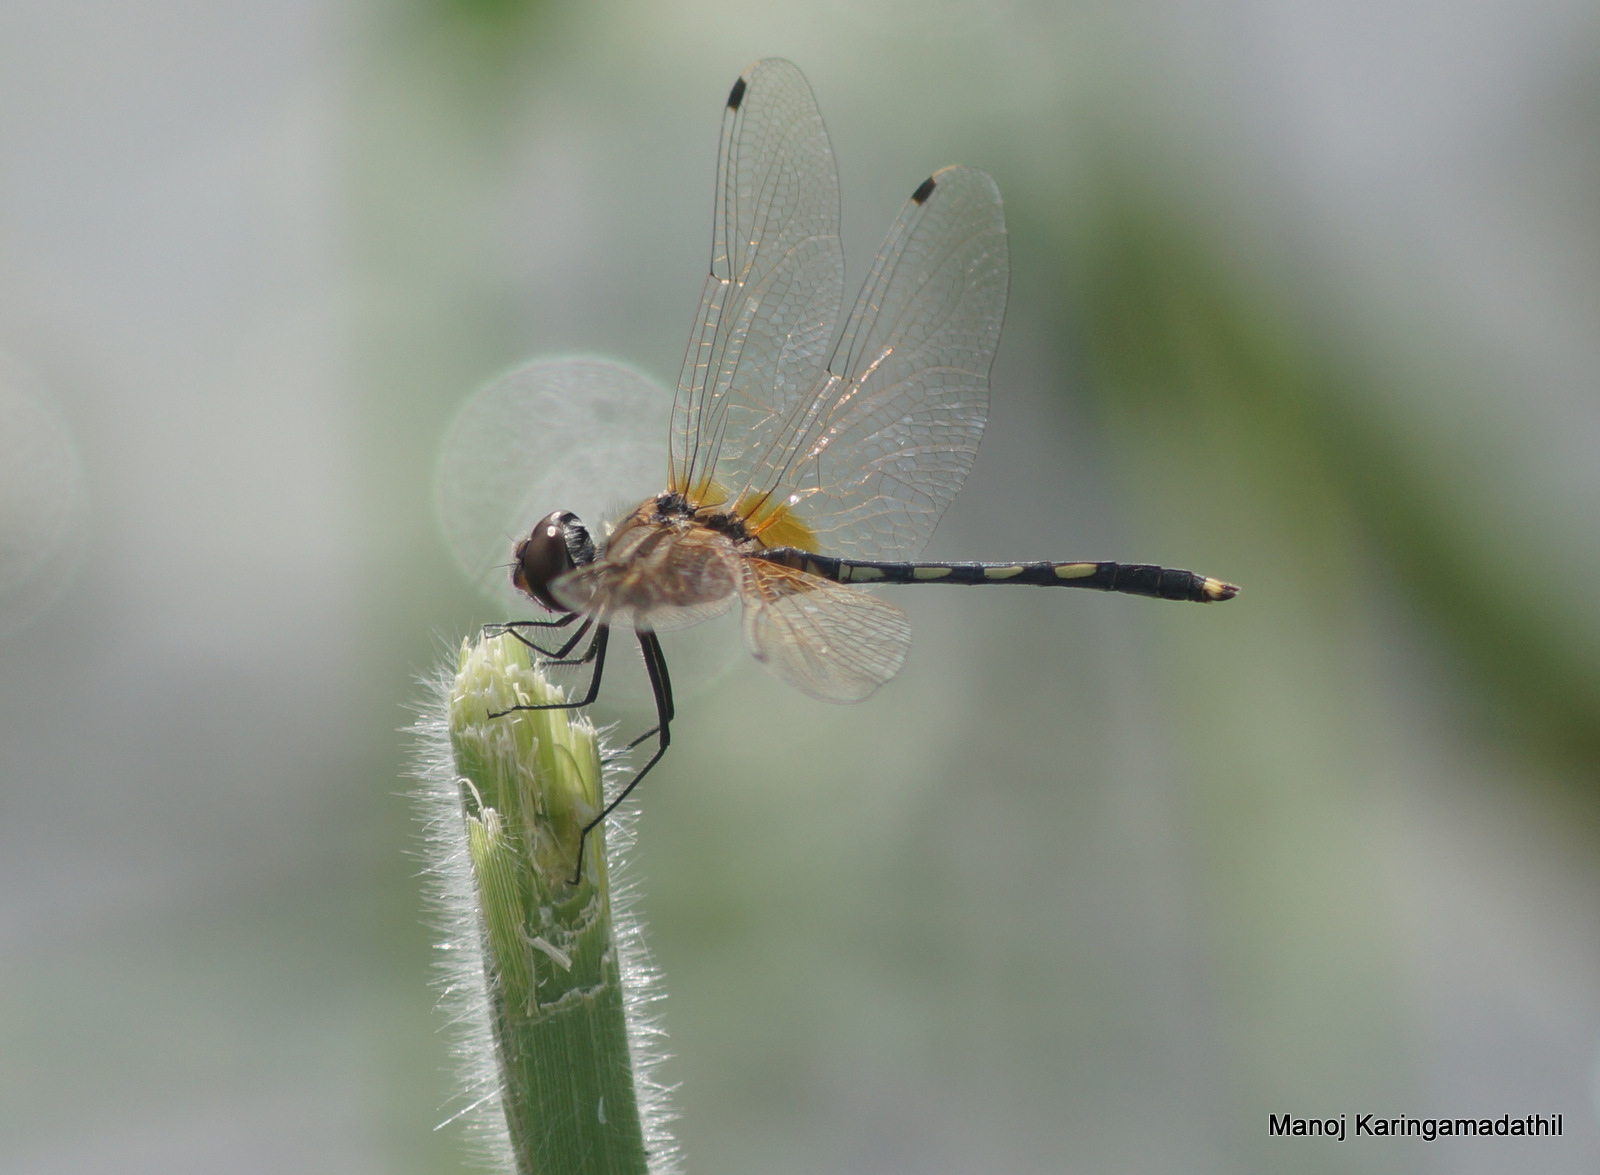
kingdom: Animalia
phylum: Arthropoda
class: Insecta
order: Odonata
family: Libellulidae
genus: Trithemis
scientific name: Trithemis pallidinervis
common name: Dancing dropwing
